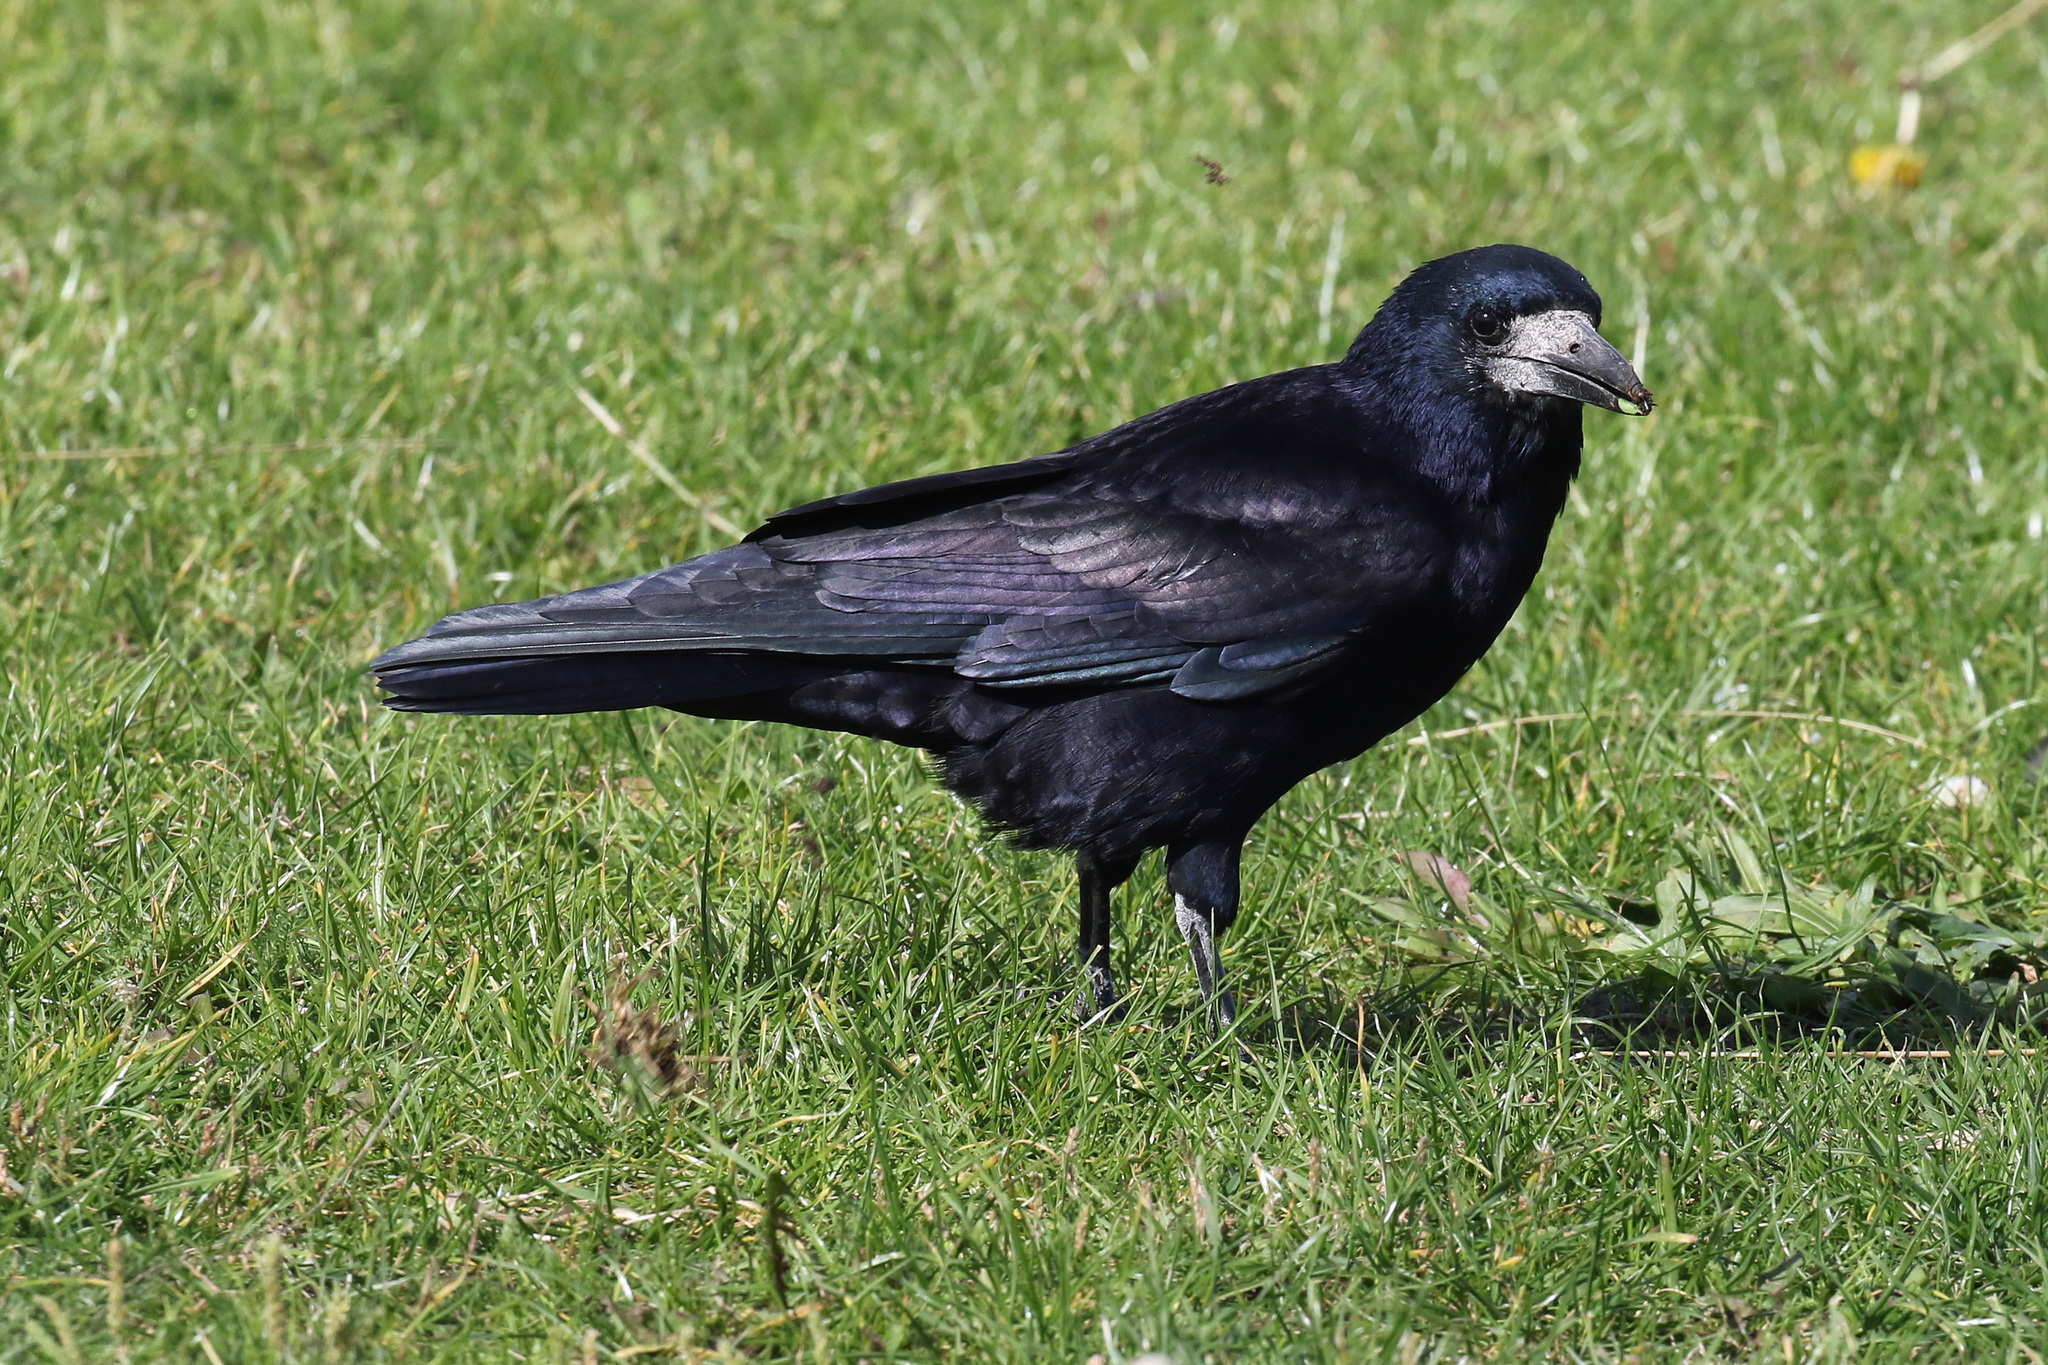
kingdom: Animalia
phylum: Chordata
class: Aves
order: Passeriformes
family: Corvidae
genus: Corvus
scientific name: Corvus frugilegus
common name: Rook
